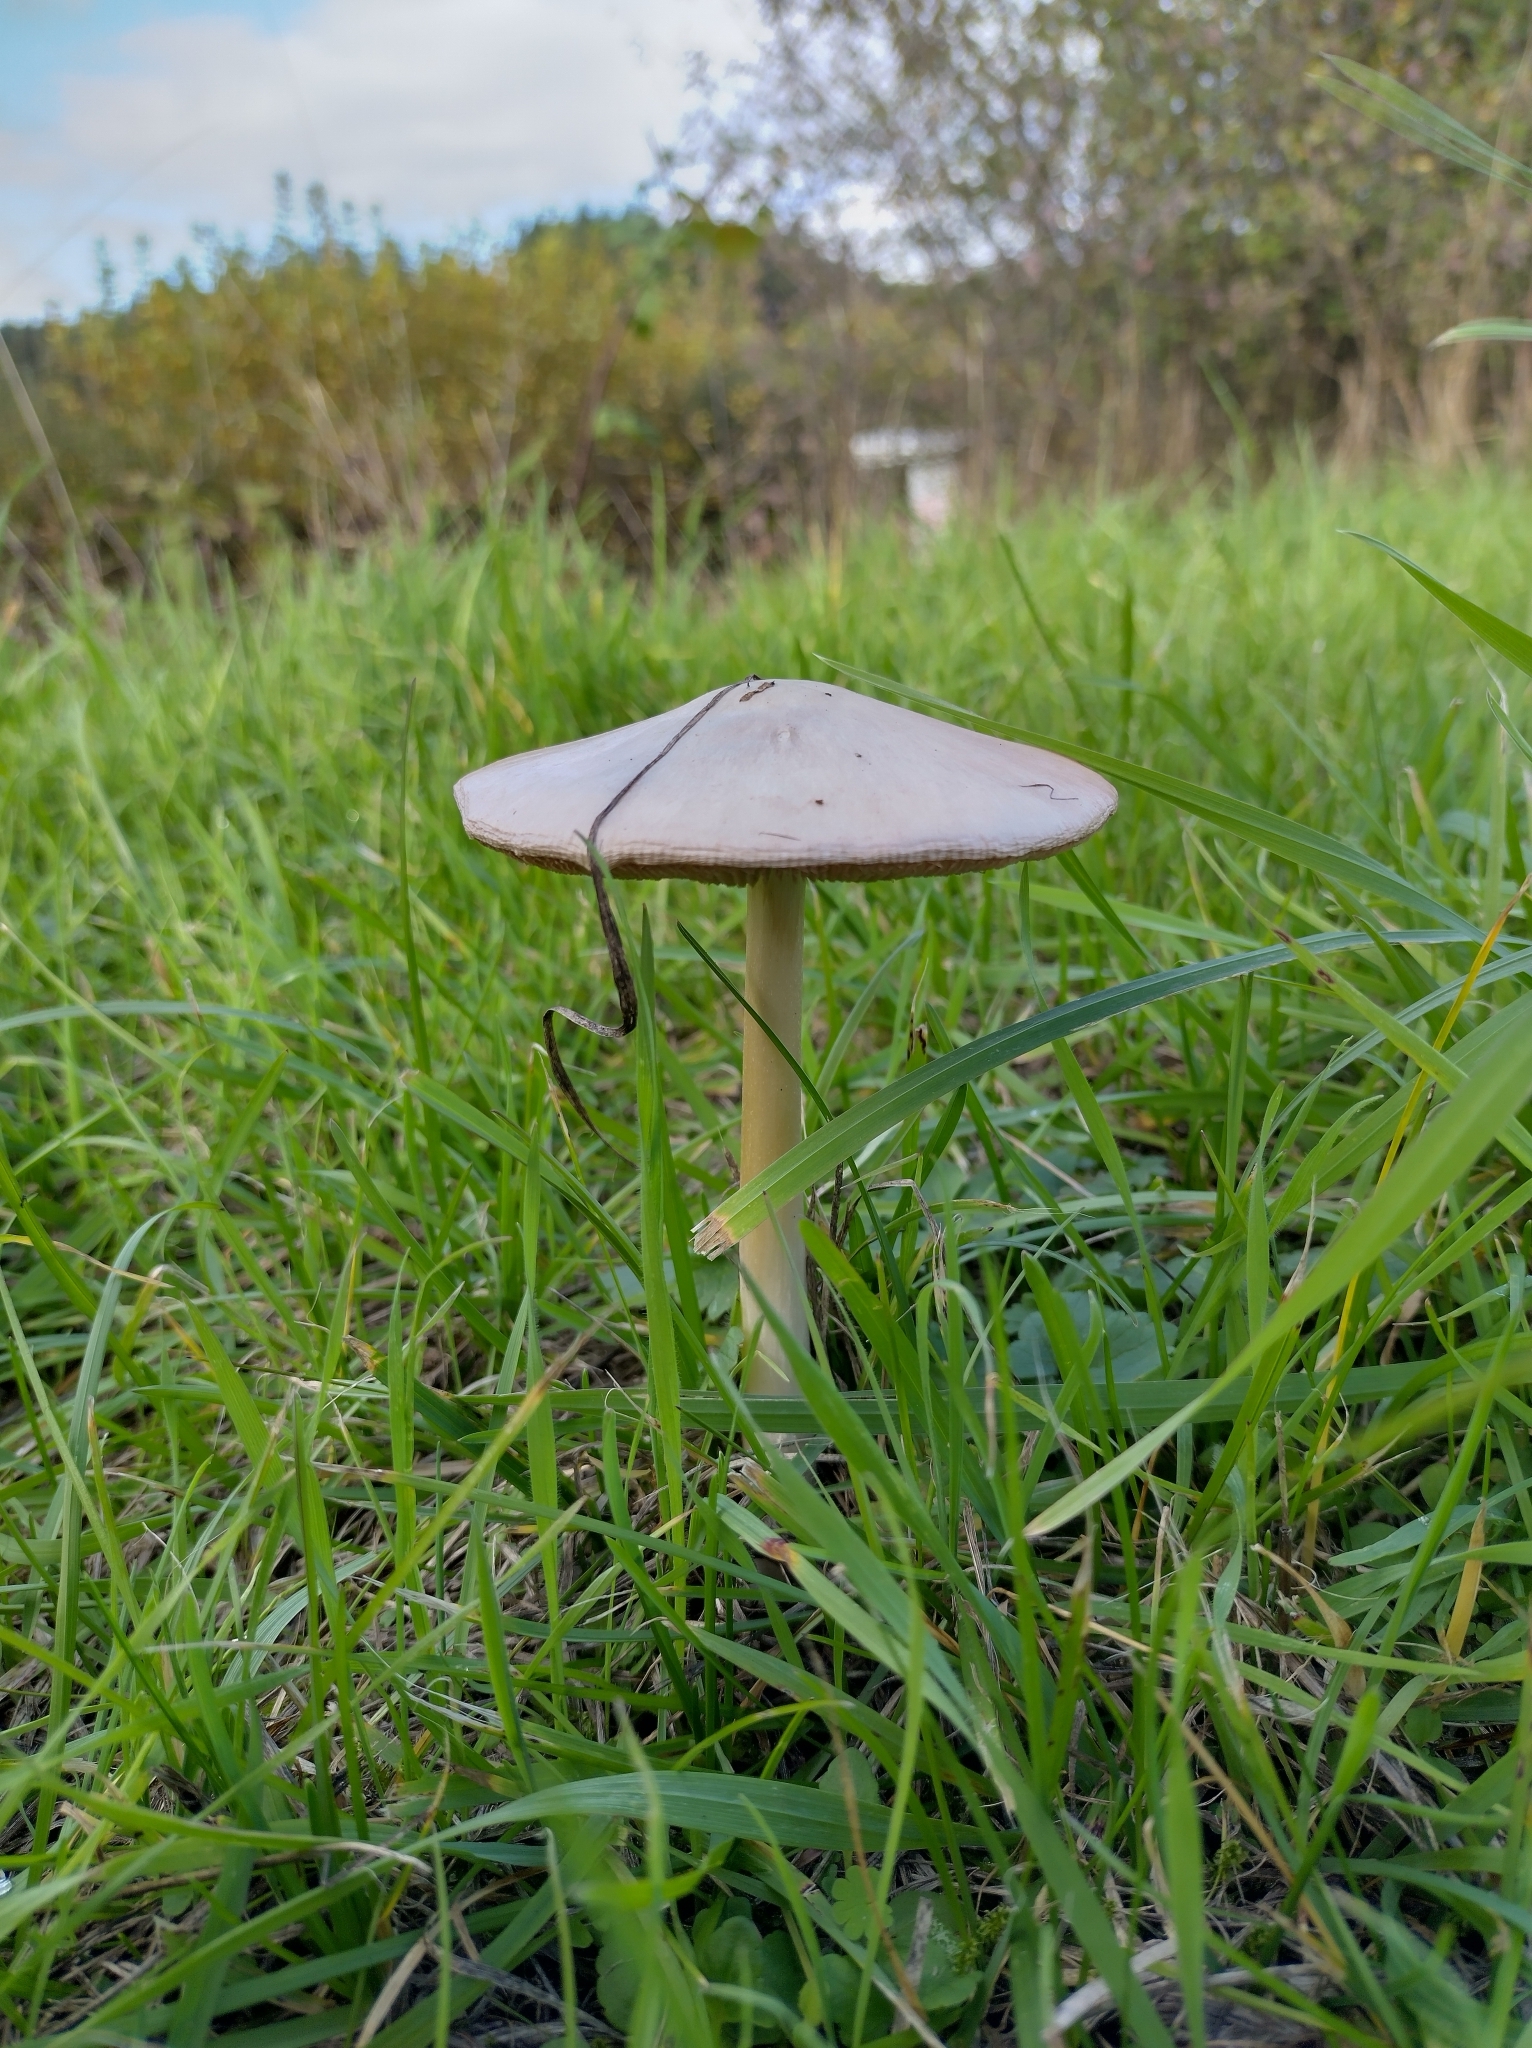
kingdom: Fungi
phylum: Basidiomycota
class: Agaricomycetes
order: Agaricales
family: Pluteaceae
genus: Volvopluteus
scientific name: Volvopluteus gloiocephalus
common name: Stubble rosegill
